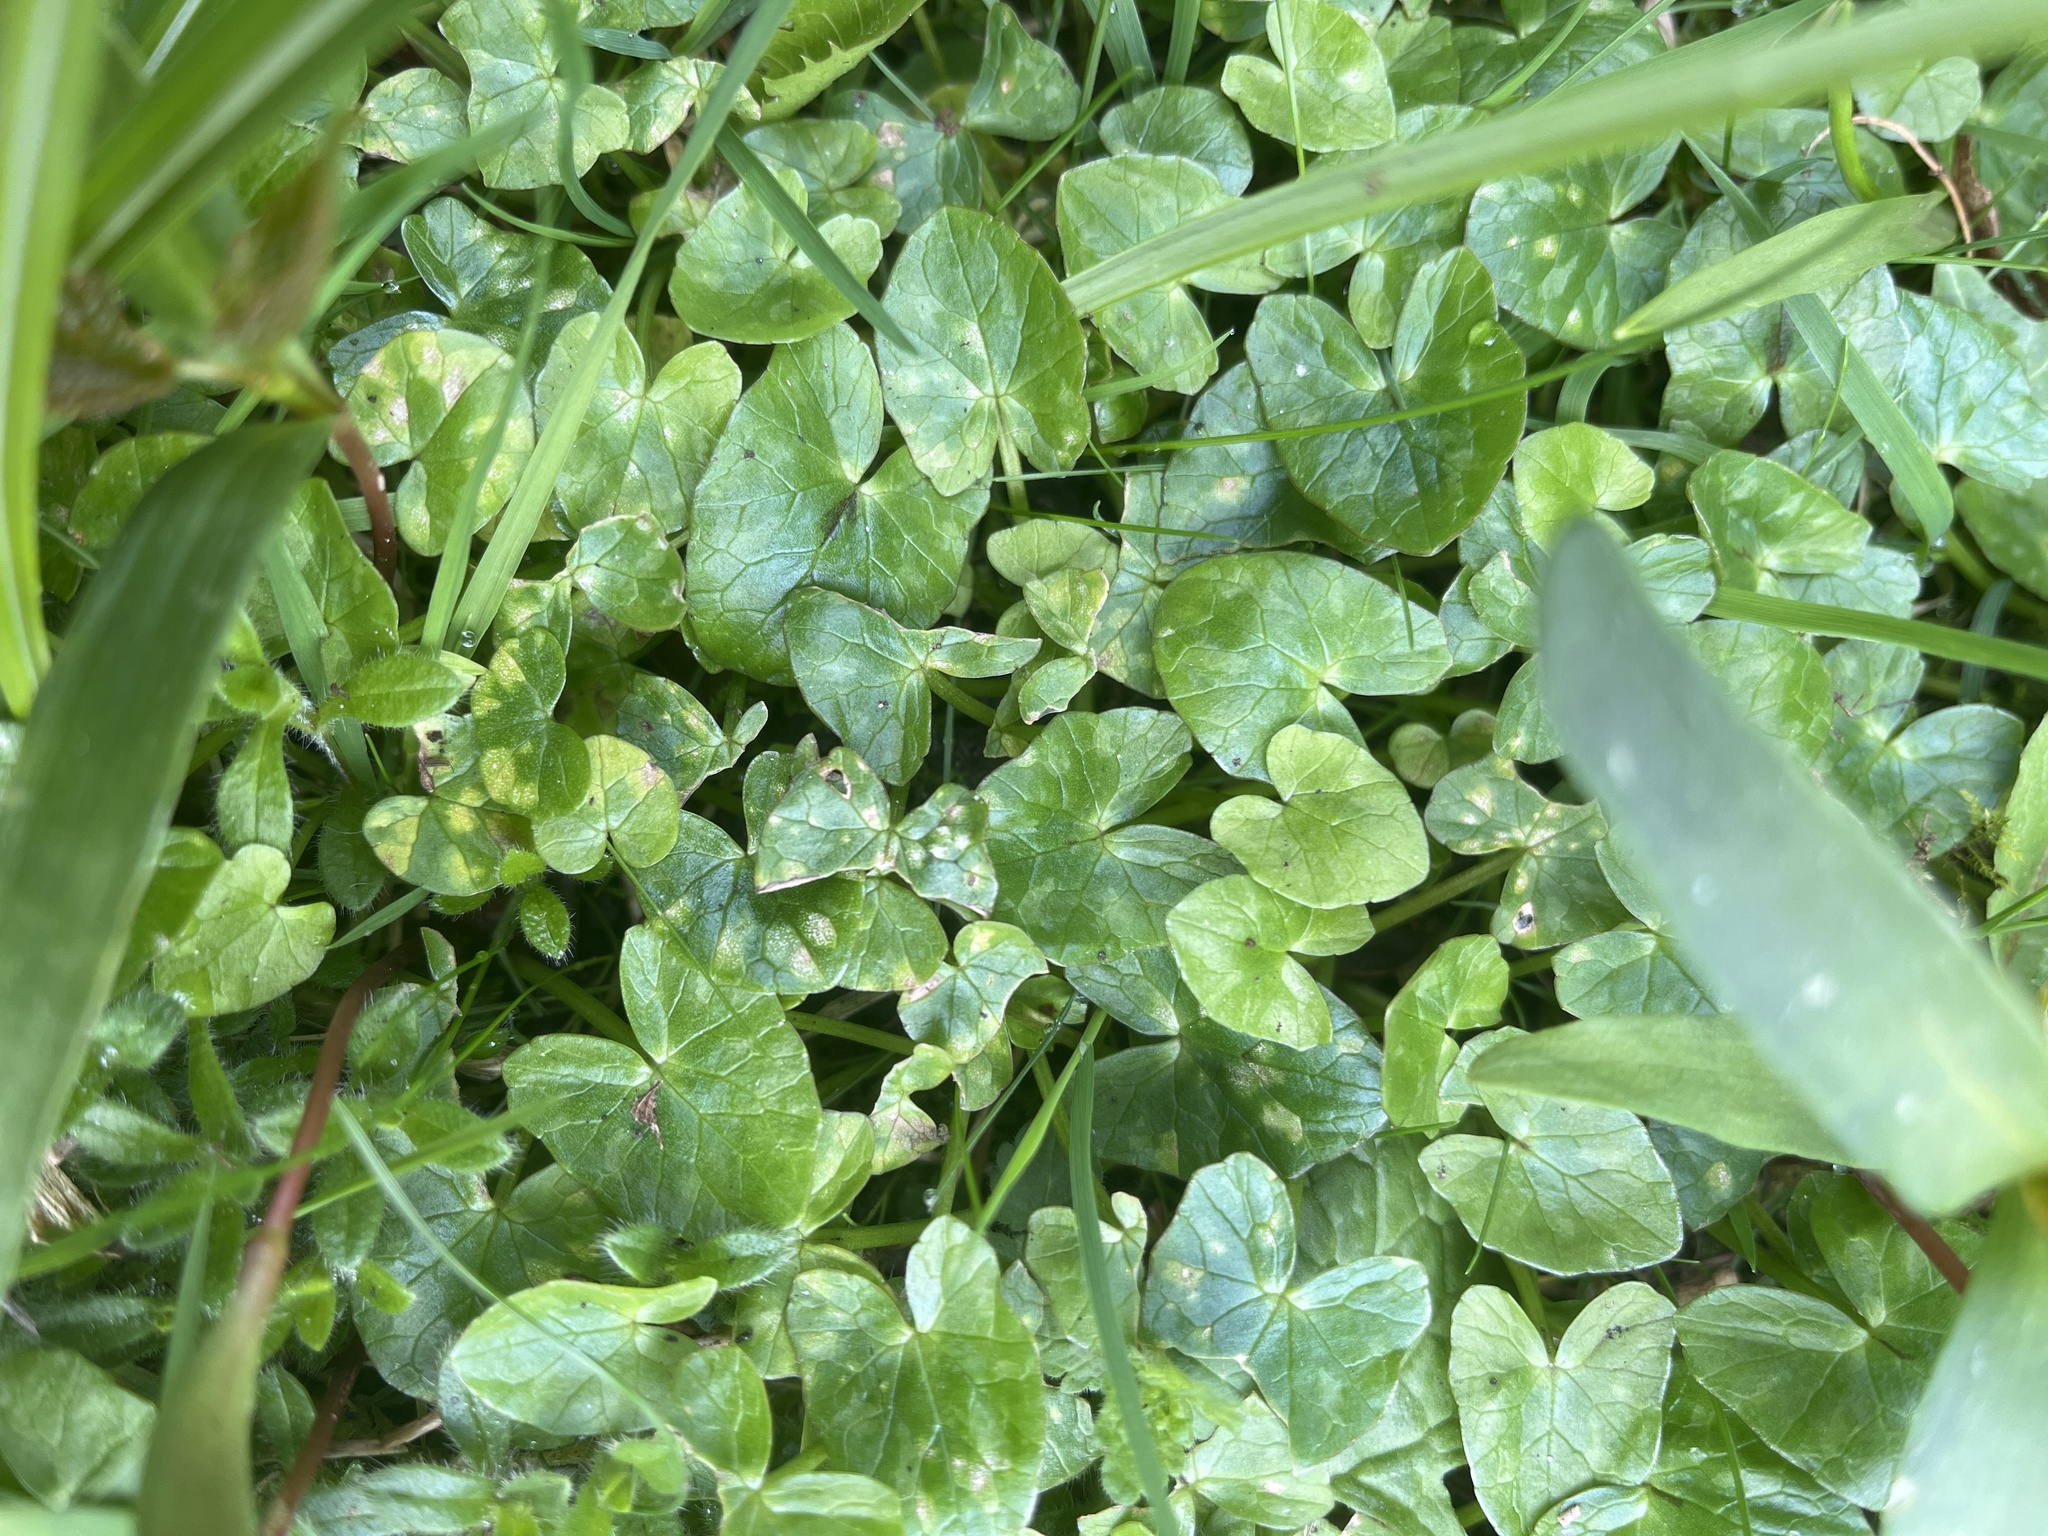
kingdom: Fungi
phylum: Basidiomycota
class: Exobasidiomycetes
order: Entylomatales
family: Entylomataceae
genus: Entyloma
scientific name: Entyloma ficariae
